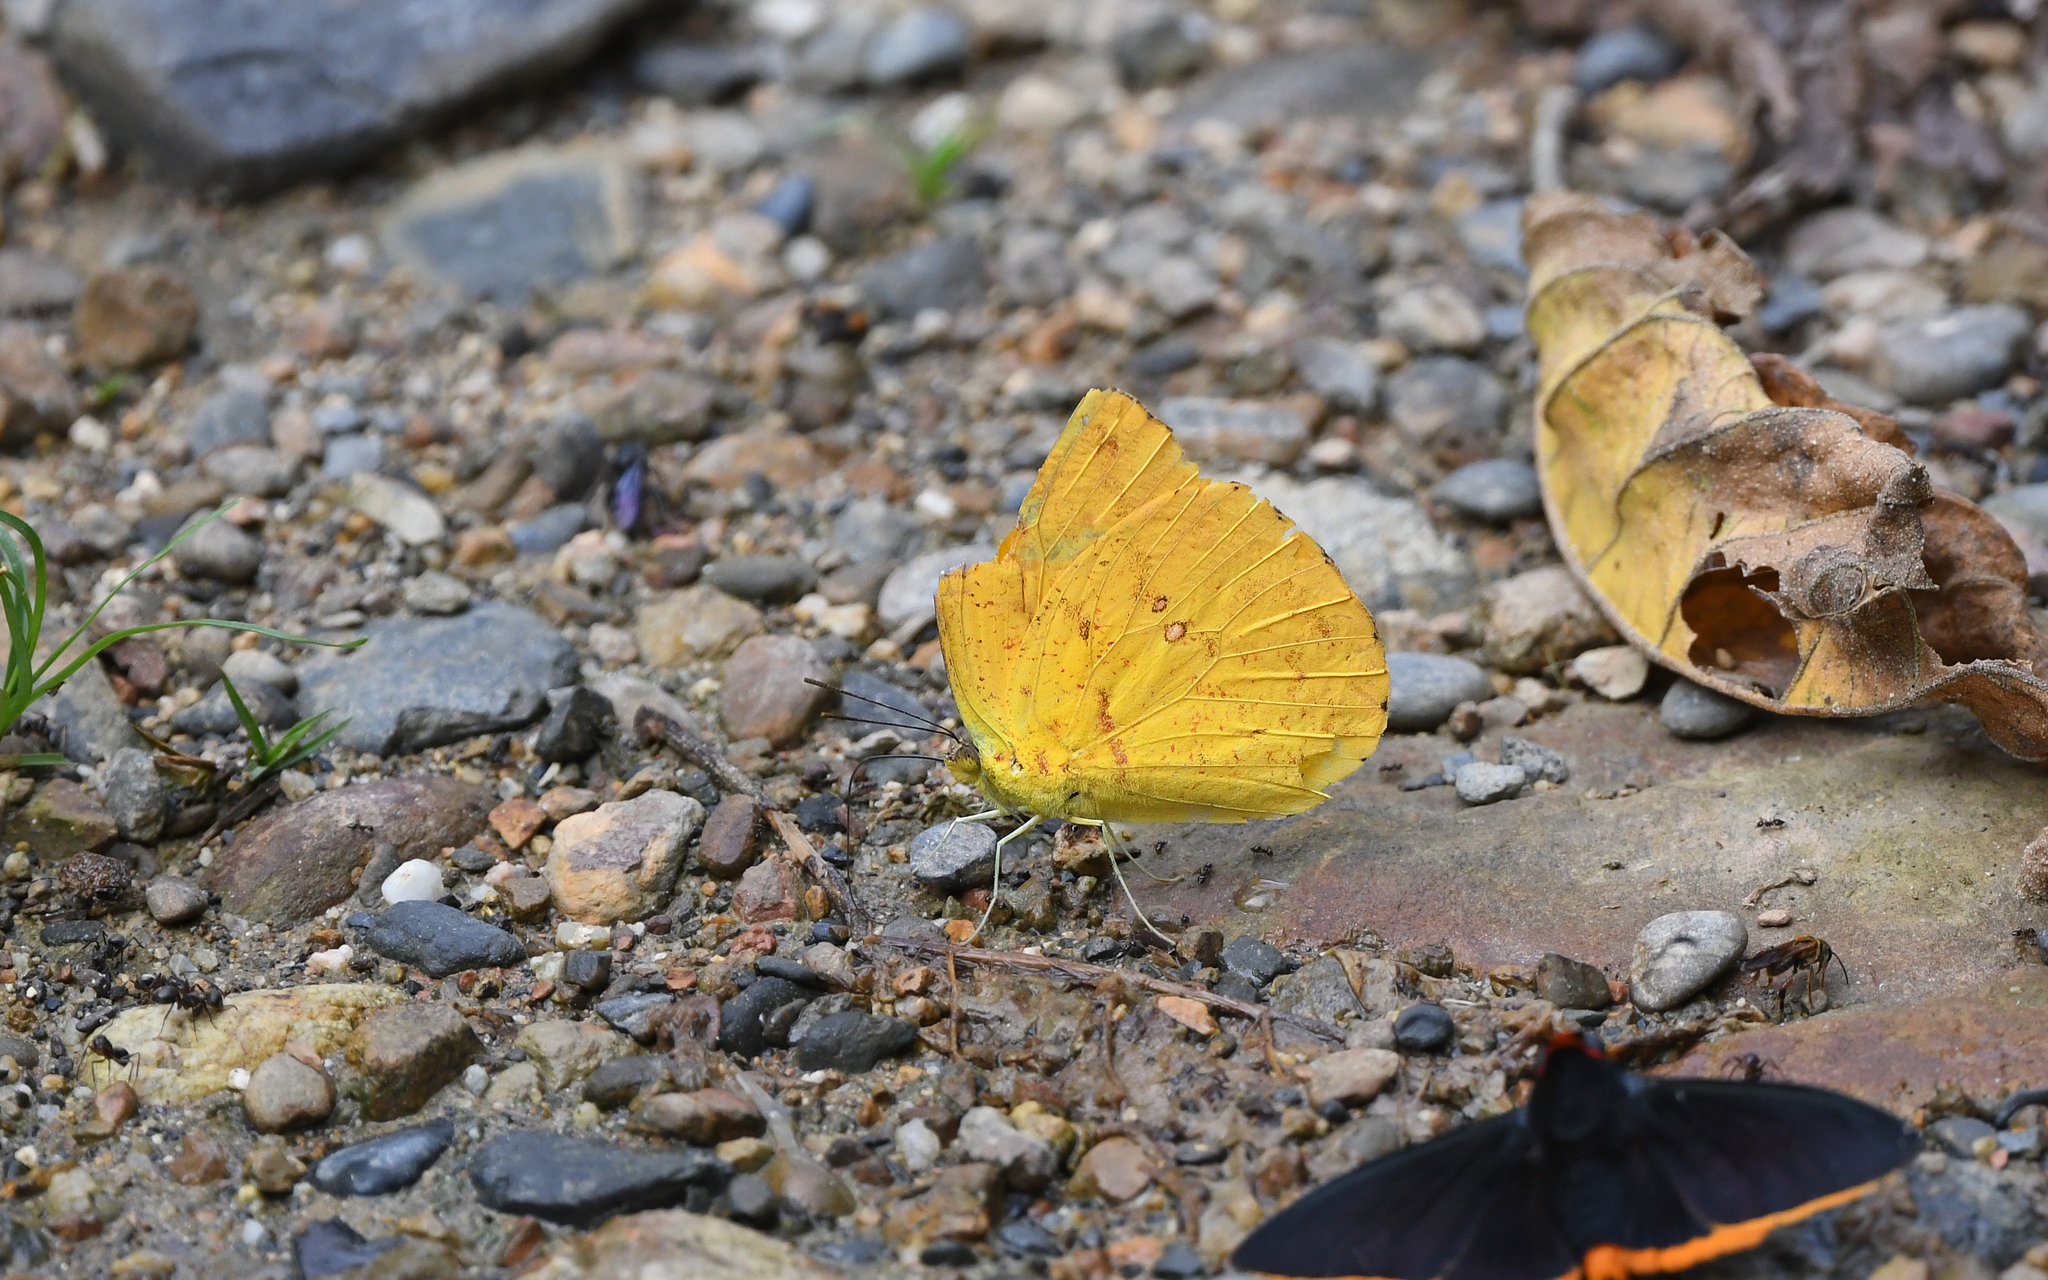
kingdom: Animalia
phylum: Arthropoda
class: Insecta
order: Lepidoptera
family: Pieridae
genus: Phoebis
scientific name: Phoebis argante
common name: Apricot sulphur
